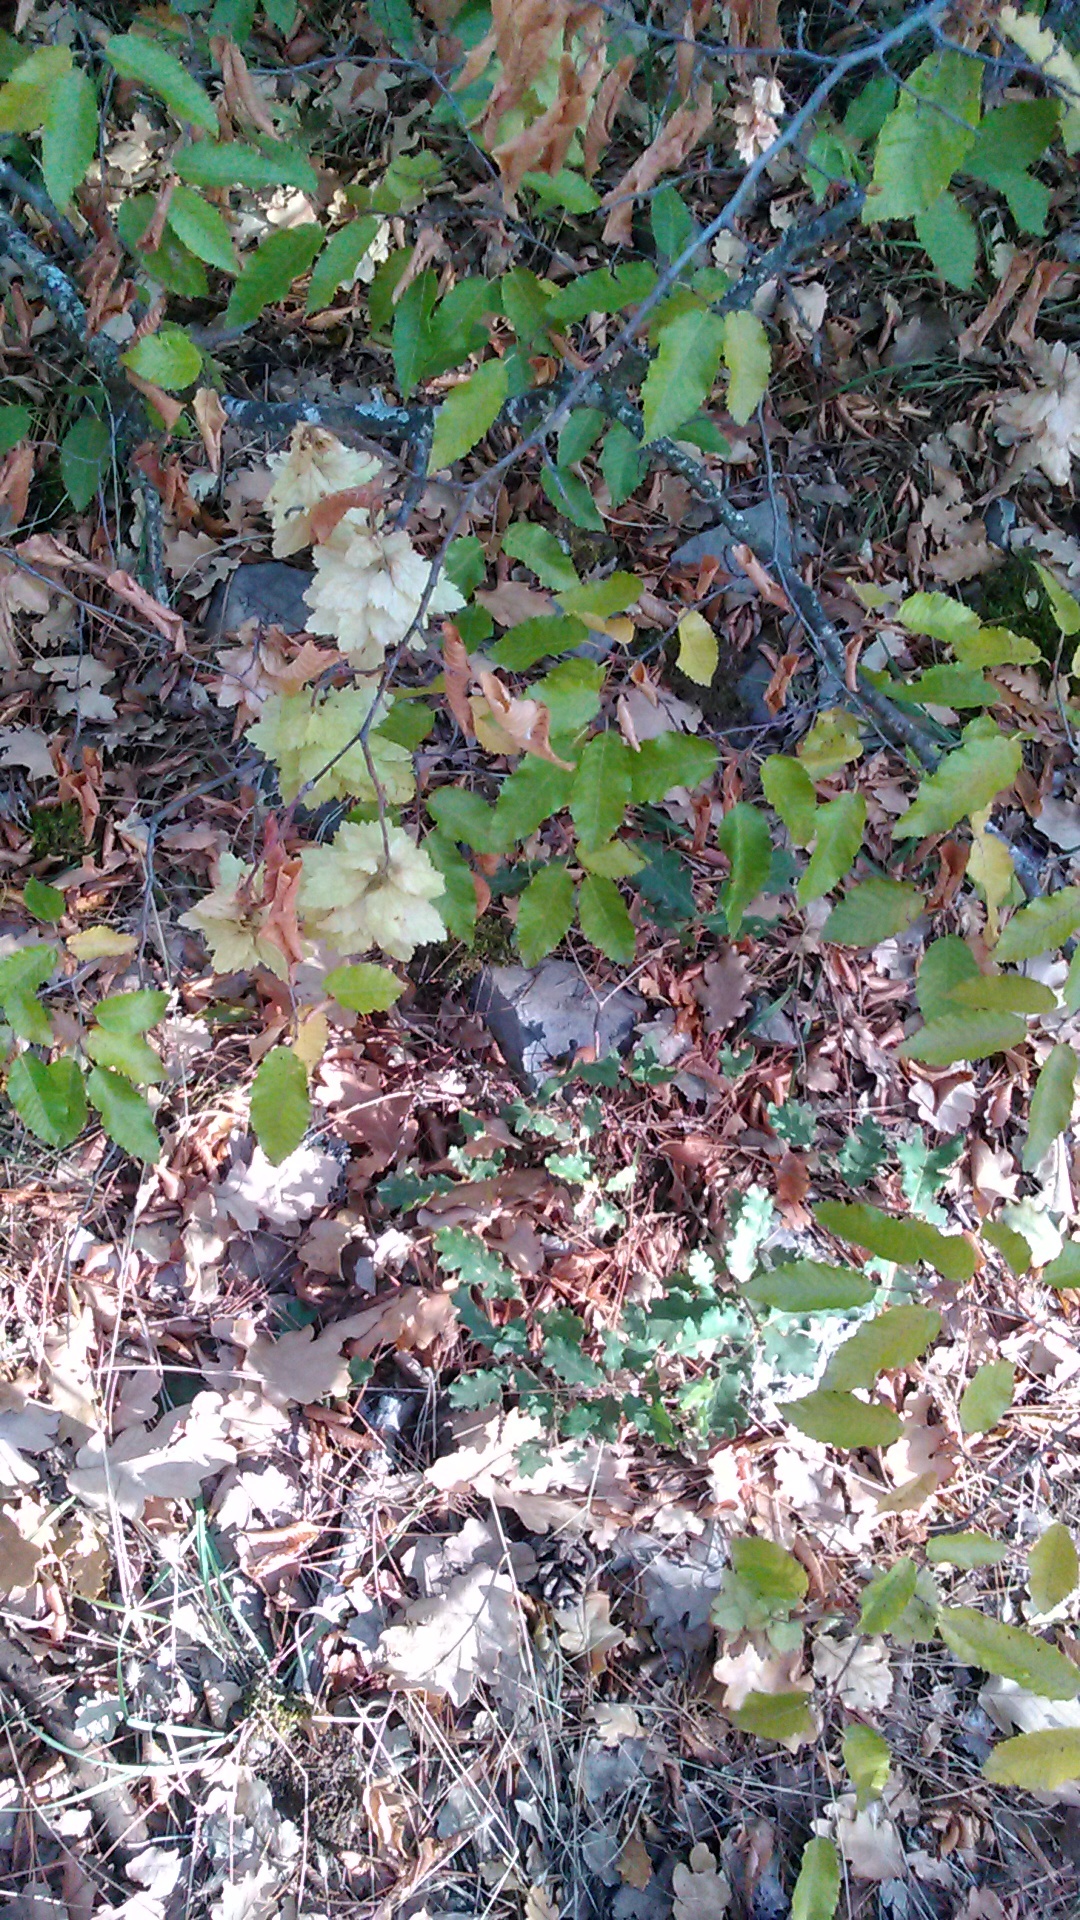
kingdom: Plantae
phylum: Tracheophyta
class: Magnoliopsida
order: Fagales
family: Betulaceae
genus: Carpinus
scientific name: Carpinus orientalis
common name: Eastern hornbeam
